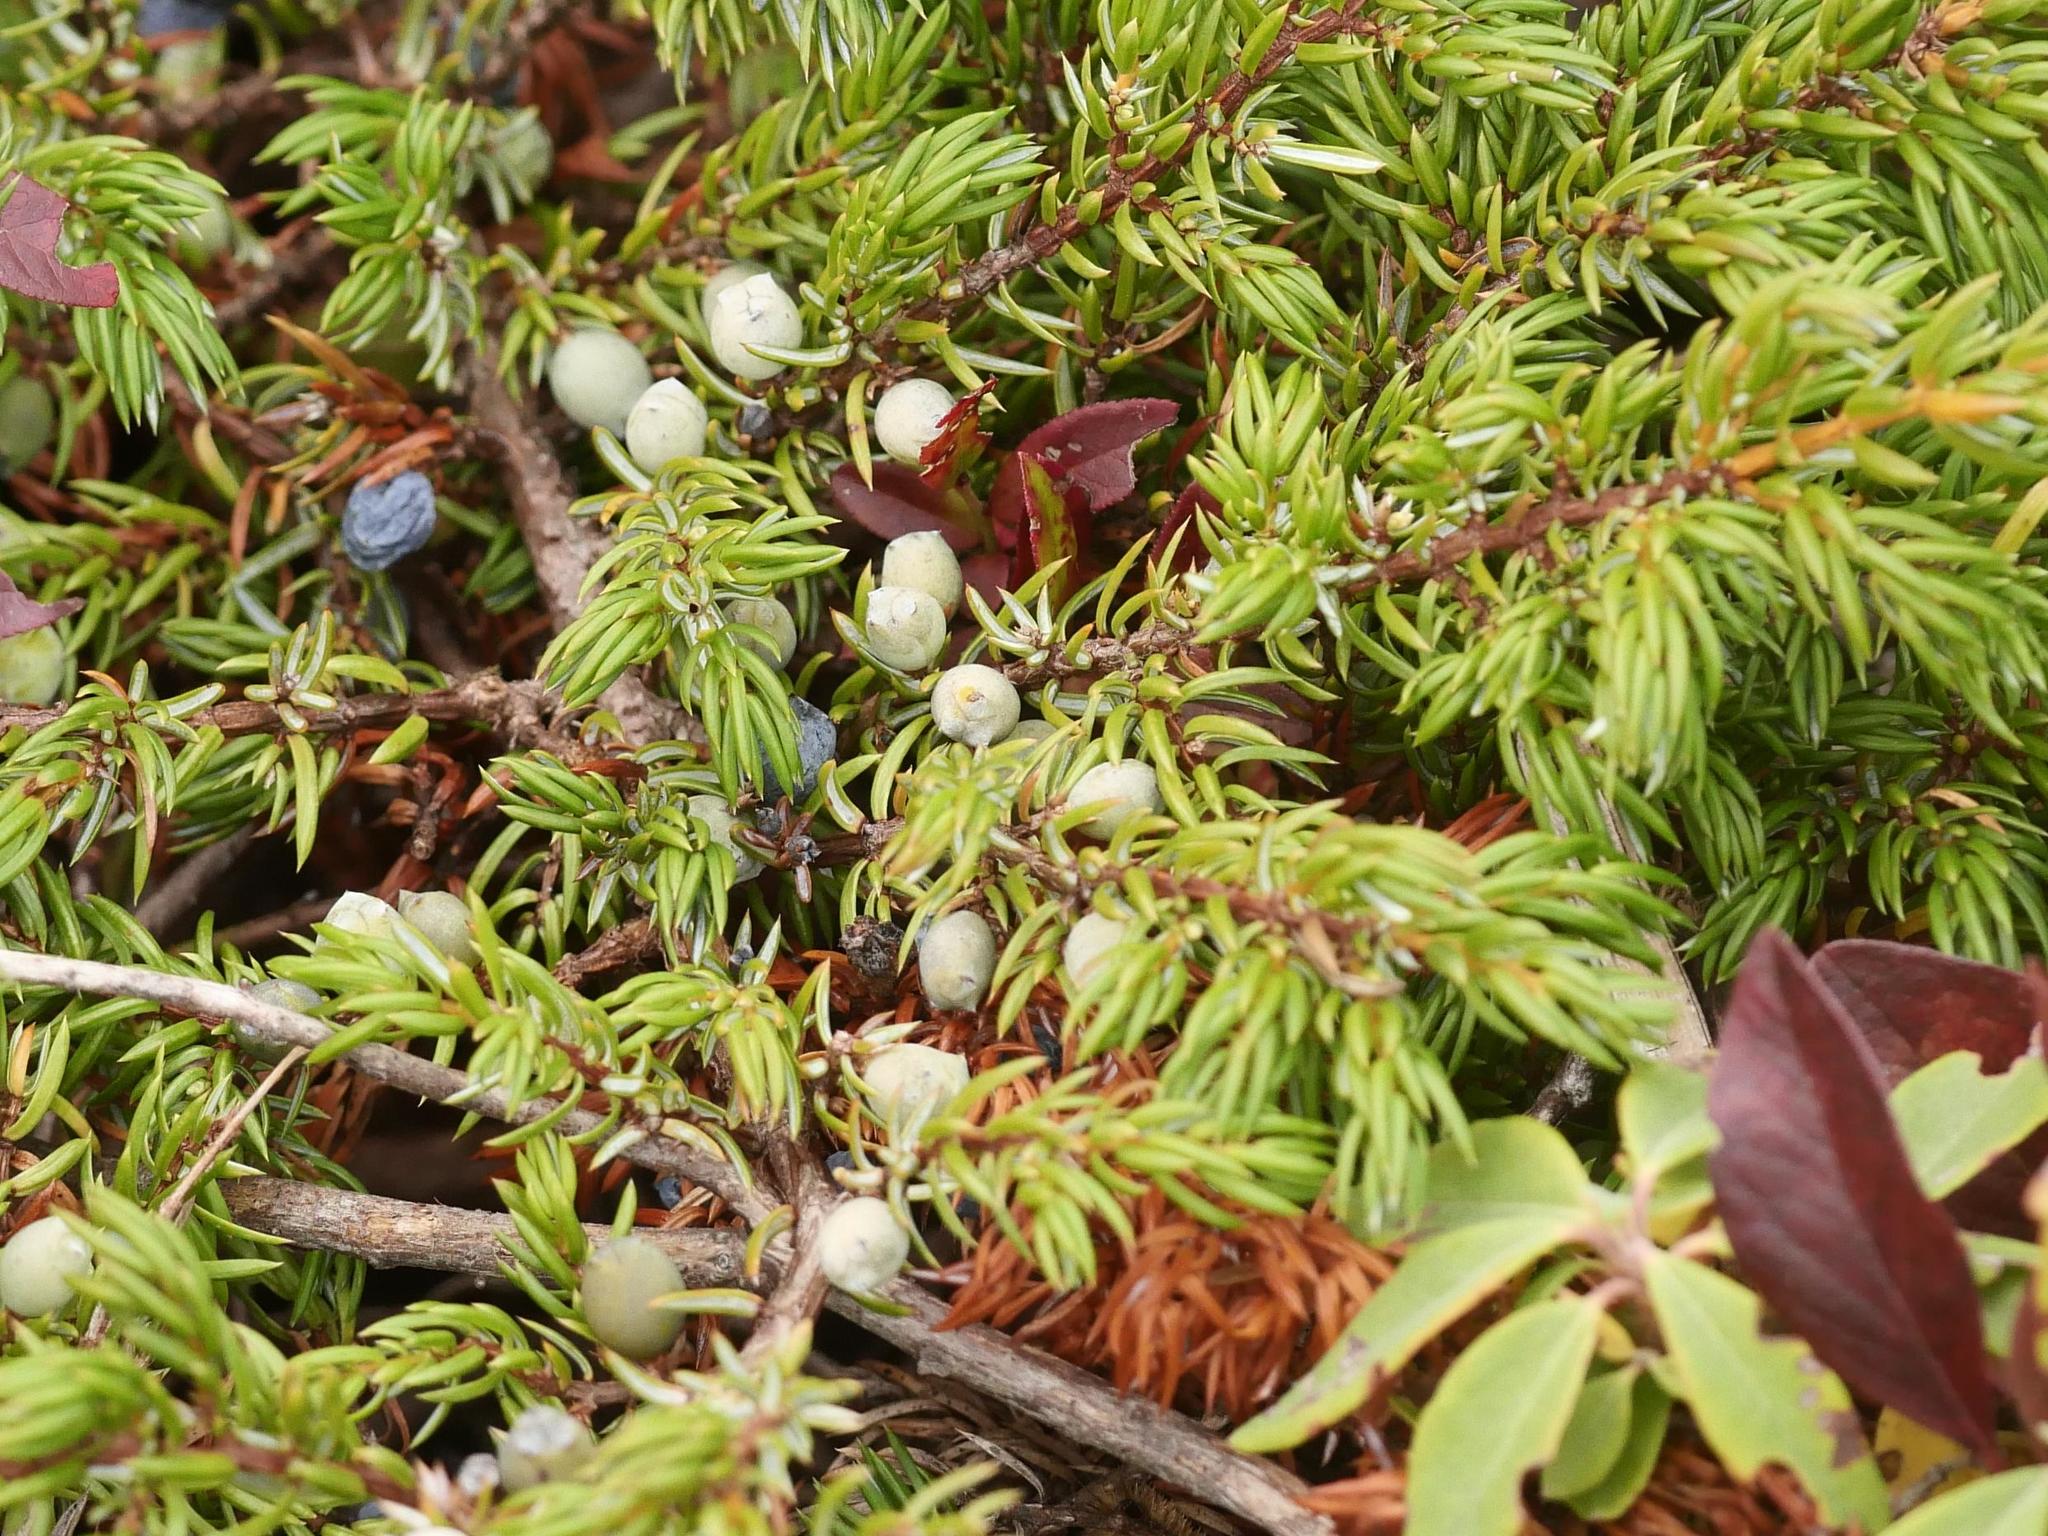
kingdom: Plantae
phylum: Tracheophyta
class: Pinopsida
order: Pinales
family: Cupressaceae
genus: Juniperus
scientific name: Juniperus communis
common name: Common juniper
